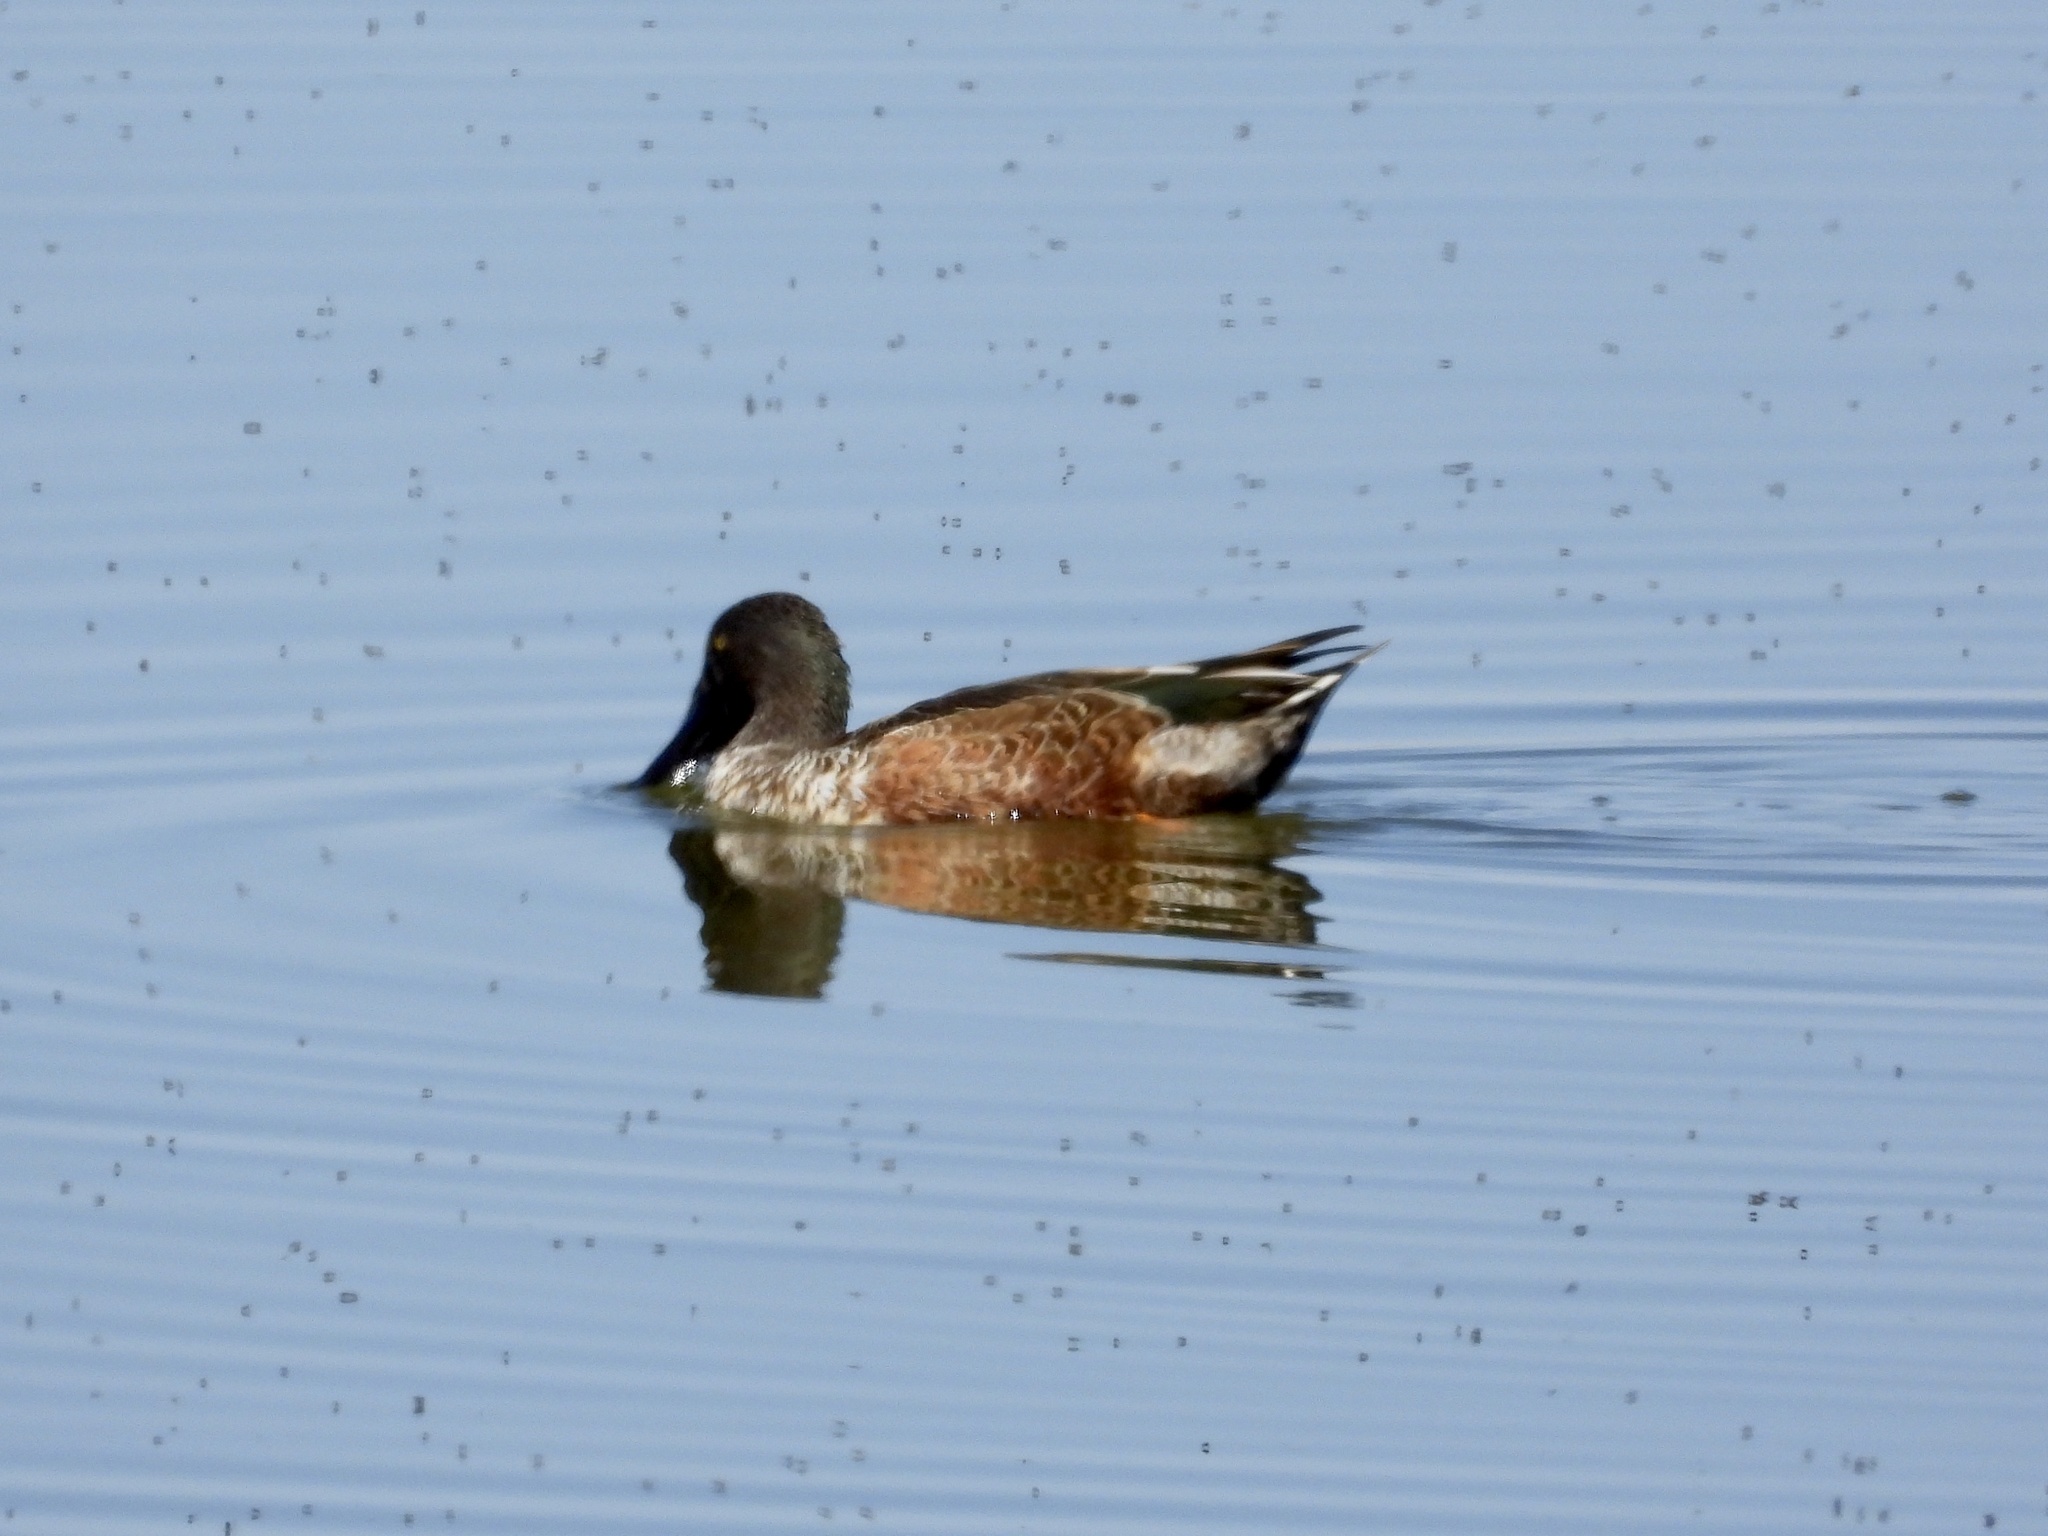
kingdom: Animalia
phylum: Chordata
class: Aves
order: Anseriformes
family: Anatidae
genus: Spatula
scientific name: Spatula clypeata
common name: Northern shoveler
